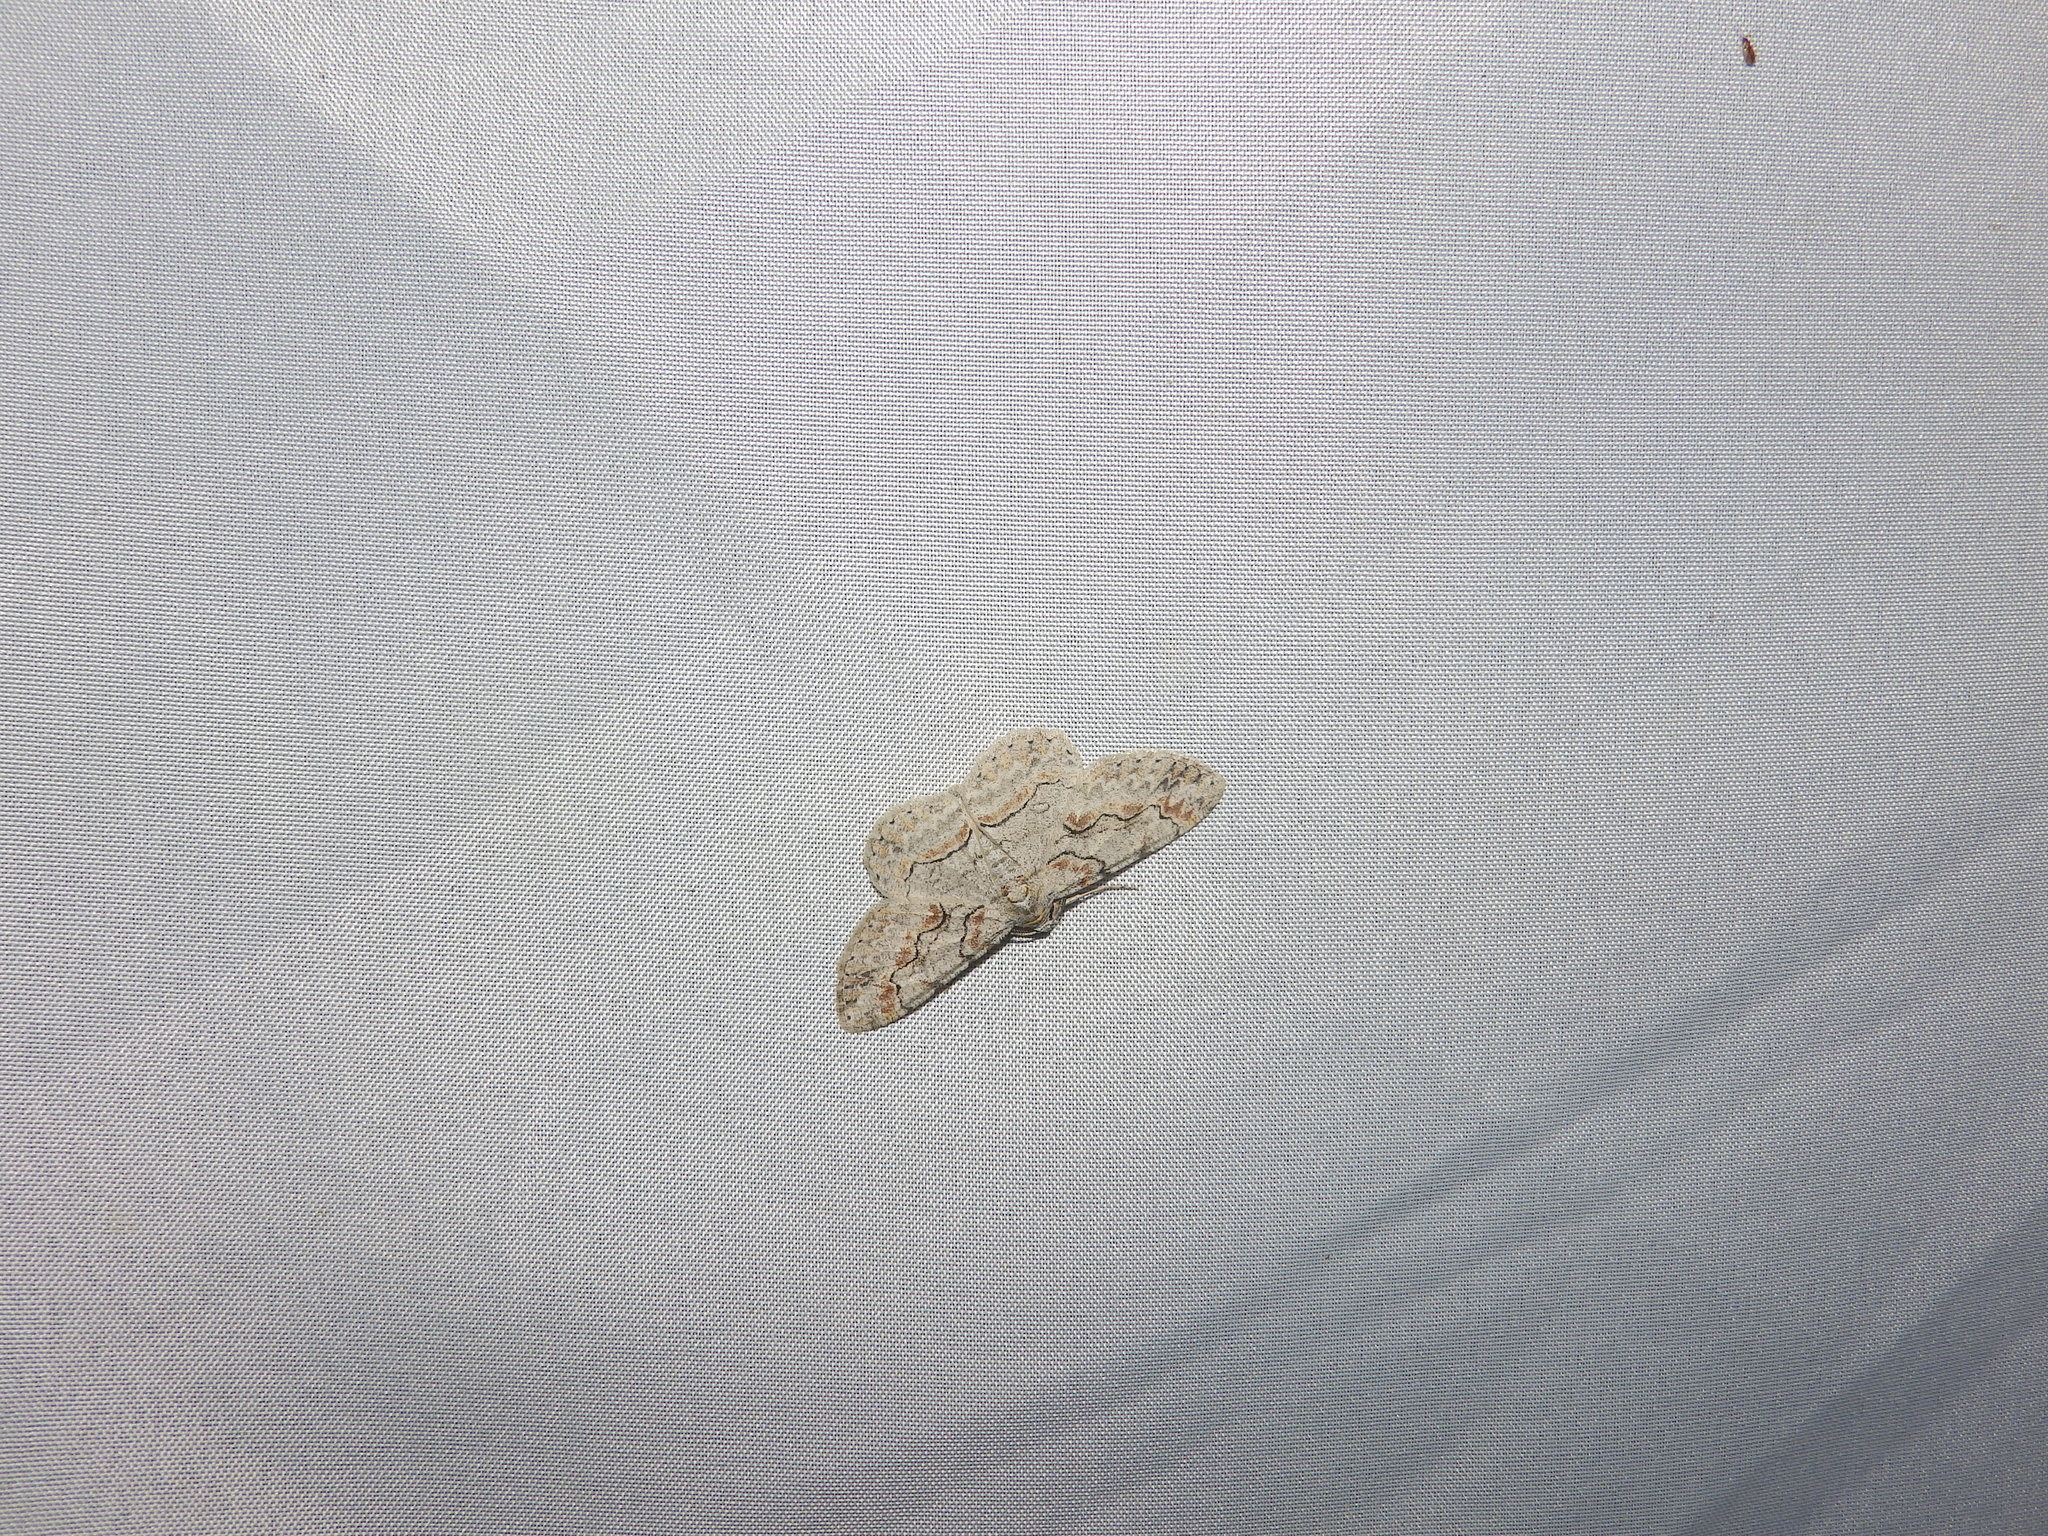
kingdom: Animalia
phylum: Arthropoda
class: Insecta
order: Lepidoptera
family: Geometridae
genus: Iridopsis
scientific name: Iridopsis defectaria
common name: Brown-shaded gray
